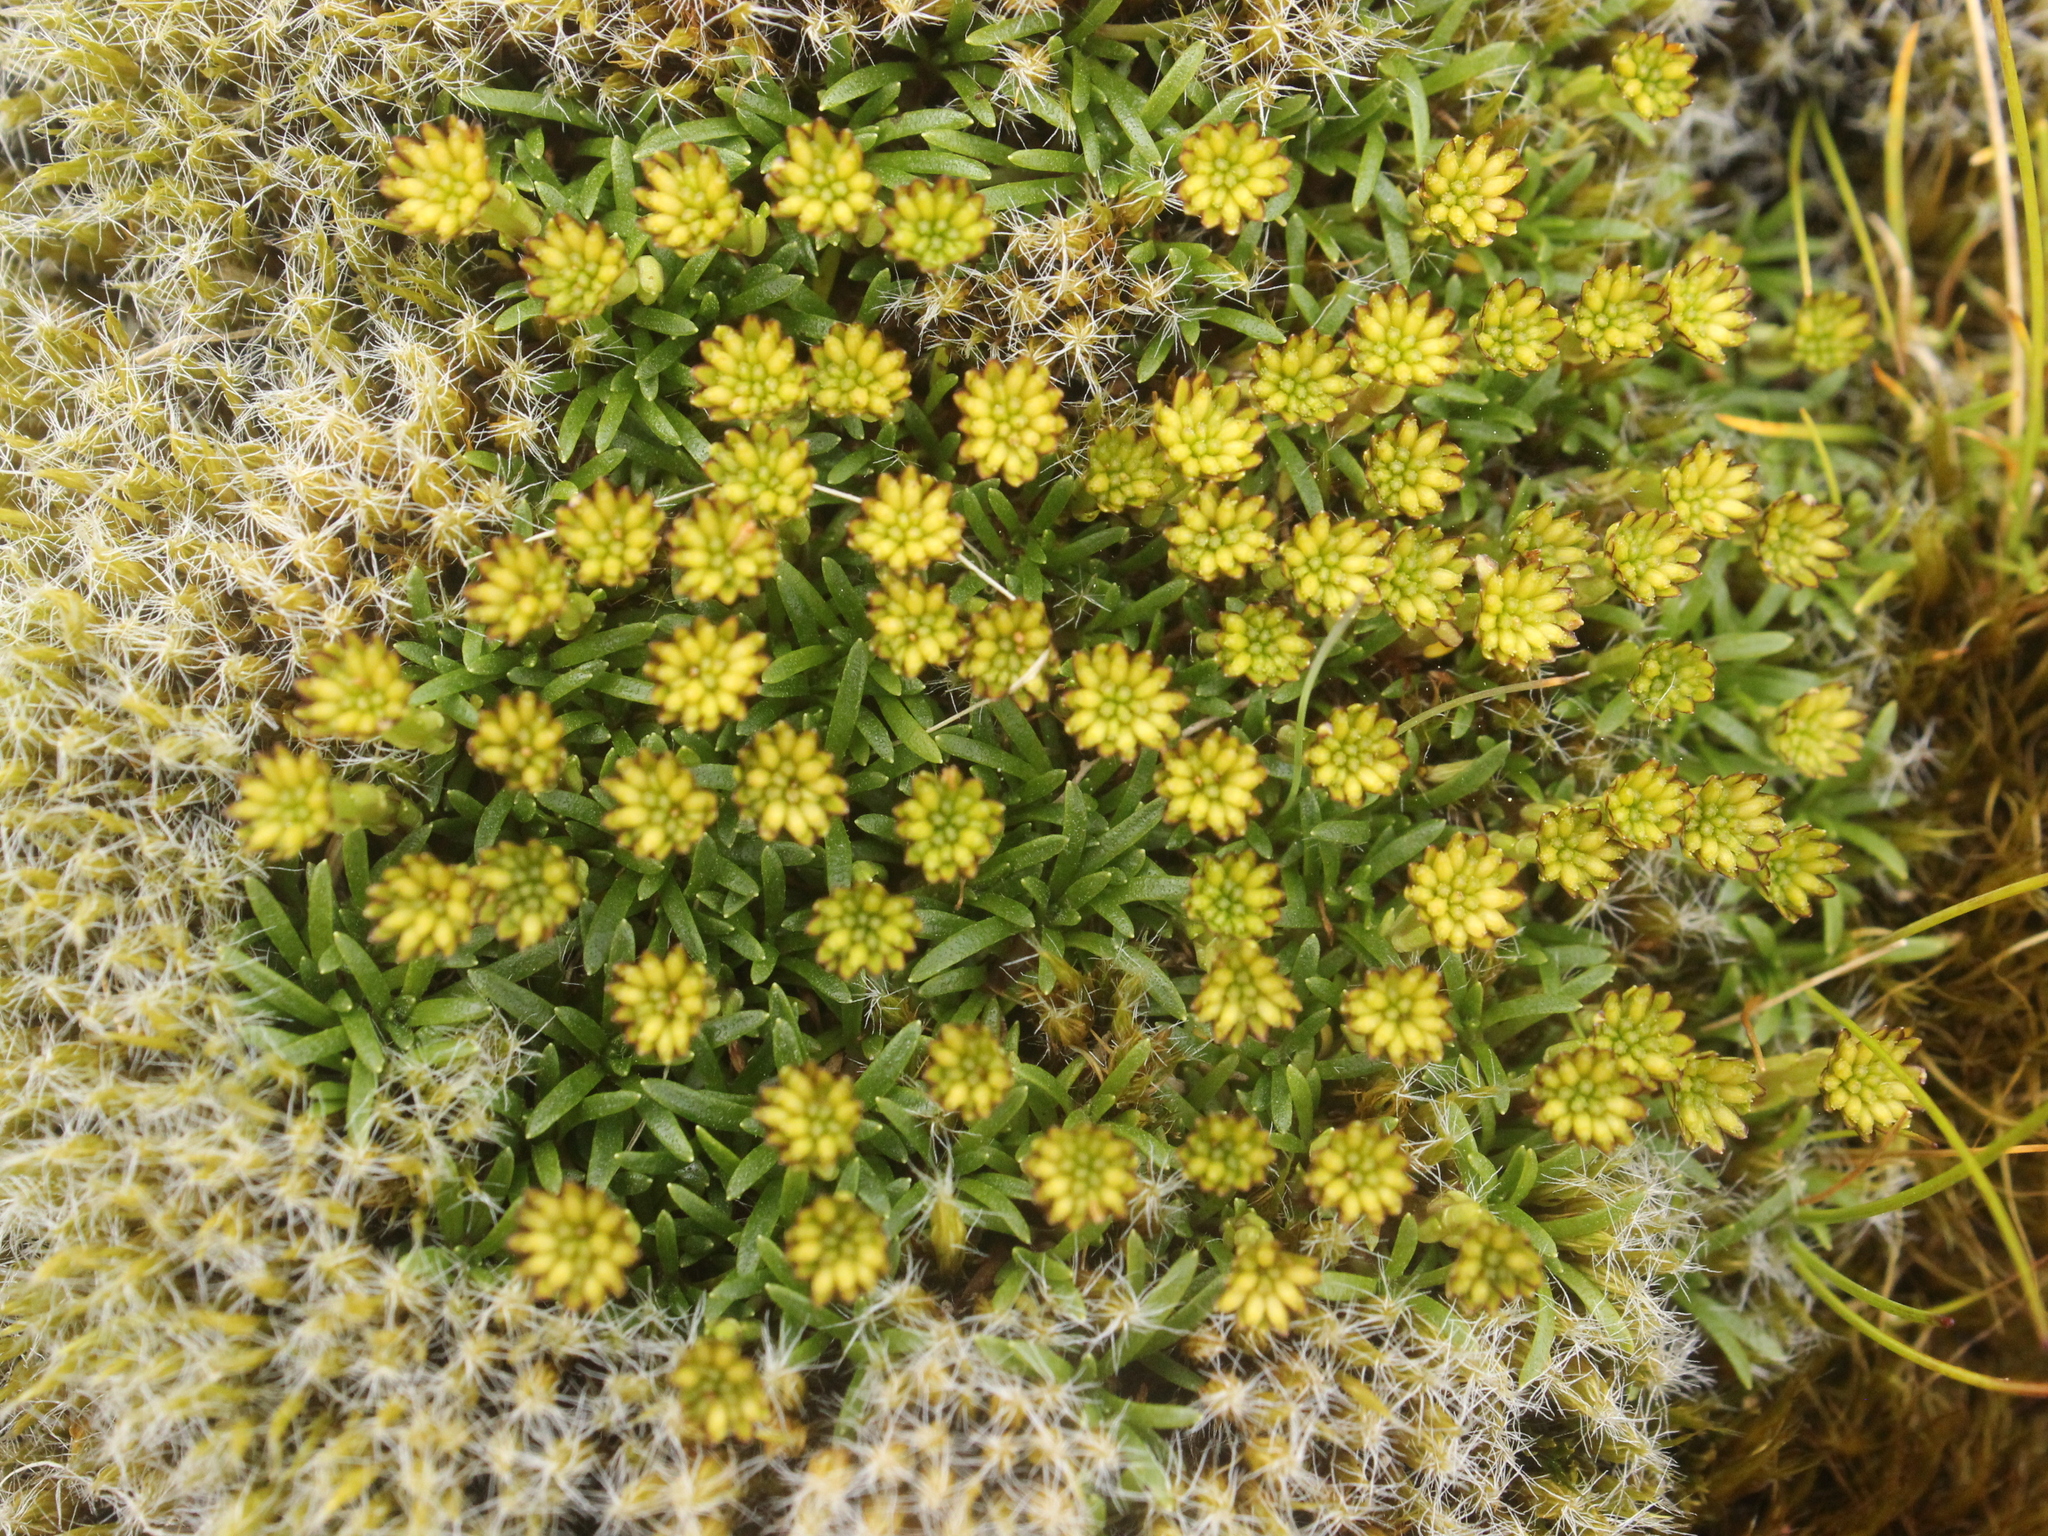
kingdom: Plantae
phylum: Tracheophyta
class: Magnoliopsida
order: Asterales
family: Asteraceae
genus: Abrotanella
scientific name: Abrotanella pusilla
